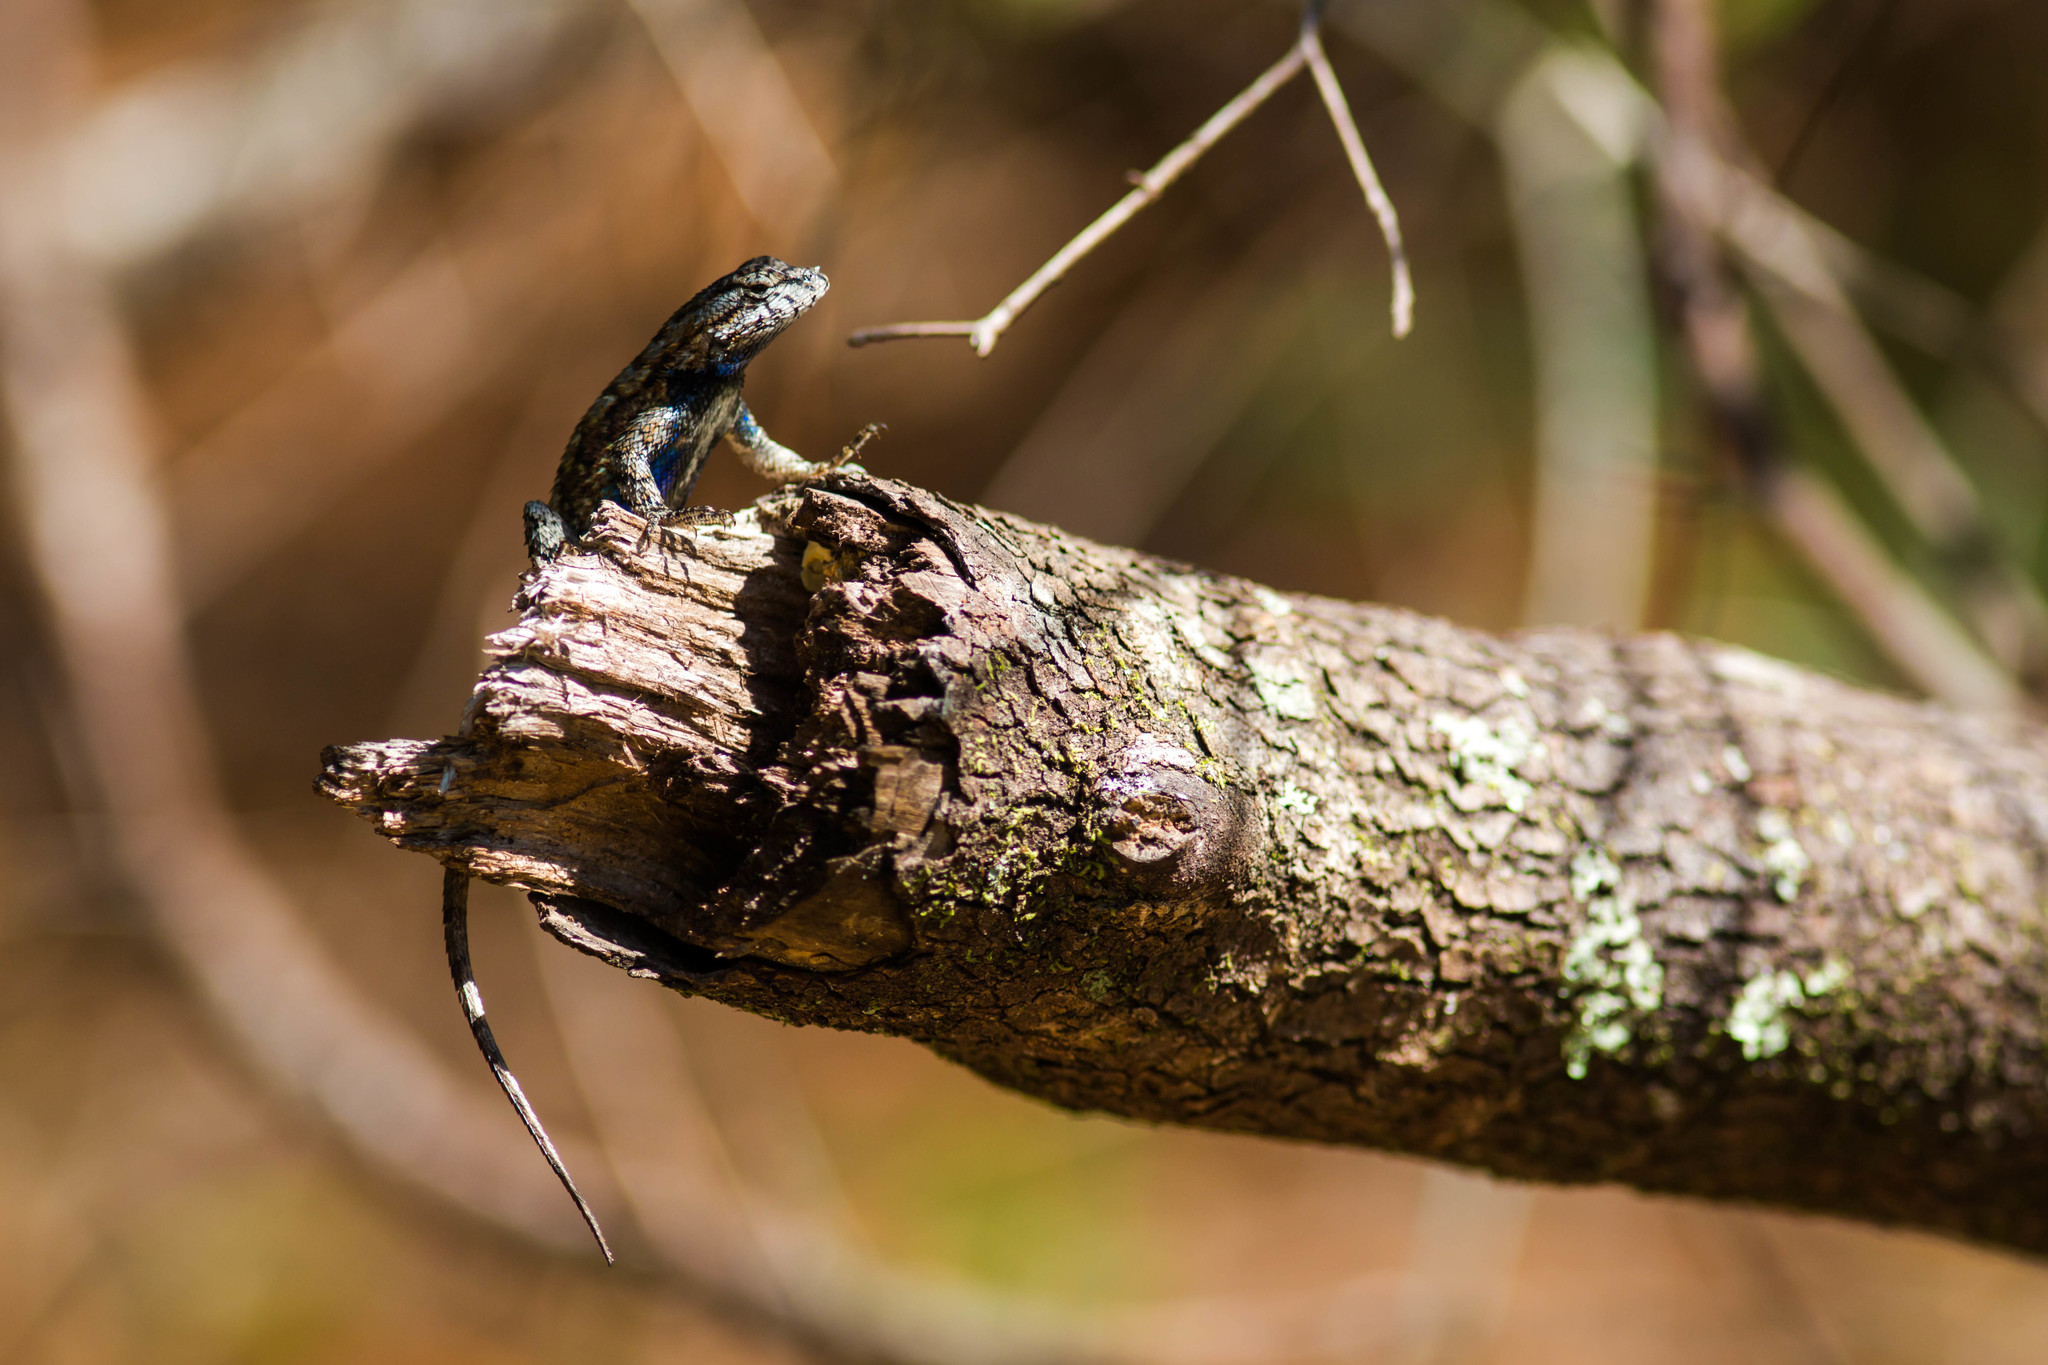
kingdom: Animalia
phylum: Chordata
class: Squamata
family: Phrynosomatidae
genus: Sceloporus
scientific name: Sceloporus undulatus
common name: Eastern fence lizard
